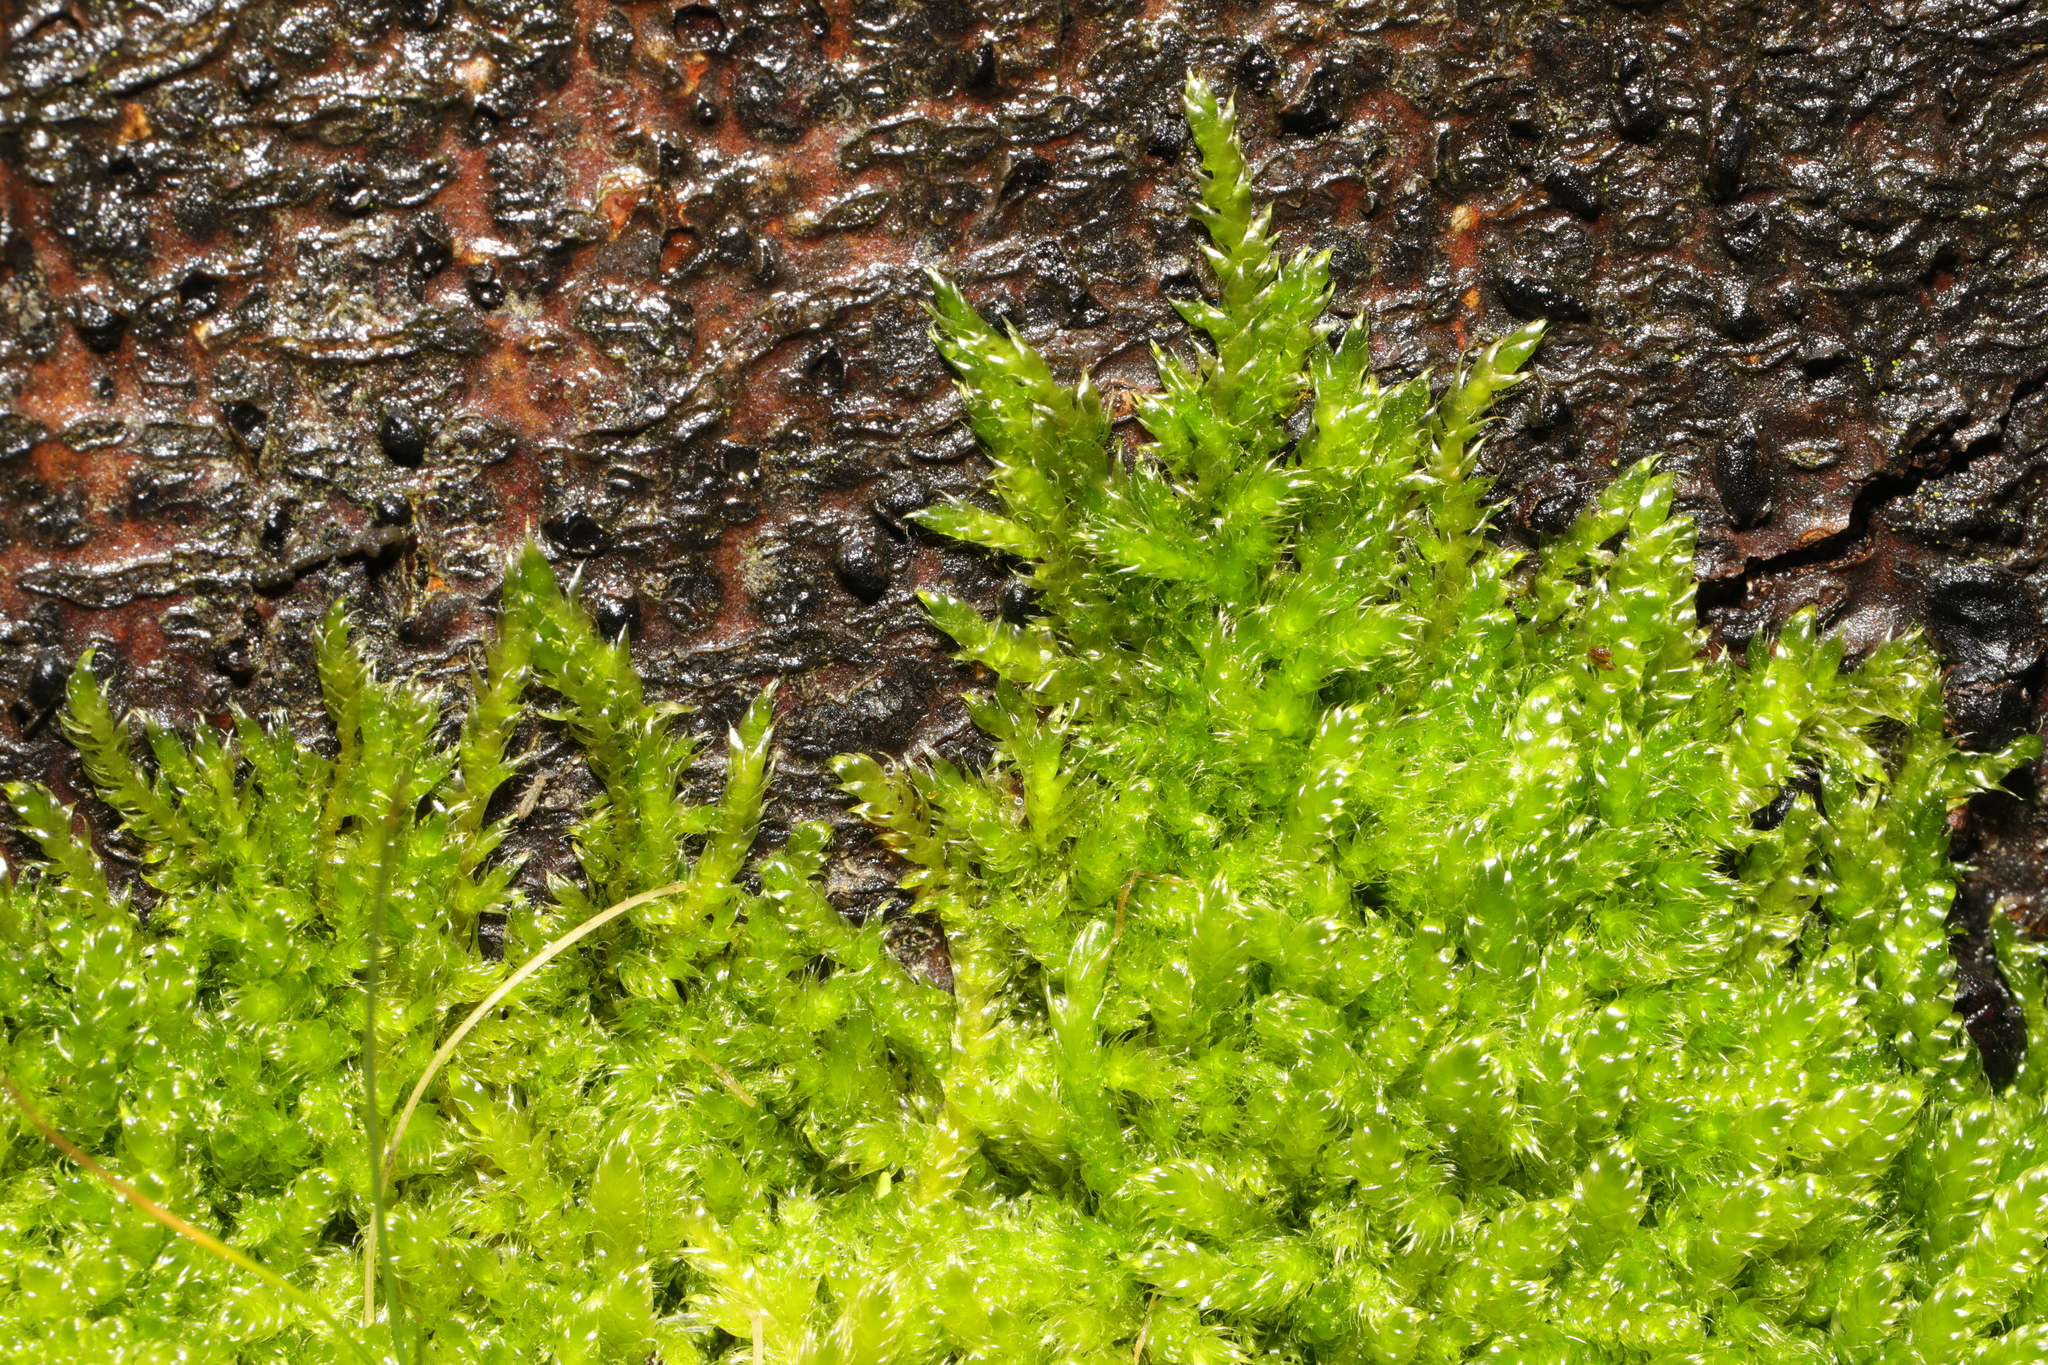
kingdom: Plantae
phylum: Bryophyta
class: Bryopsida
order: Hypnales
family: Hypnaceae
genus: Hypnum
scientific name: Hypnum cupressiforme
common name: Cypress-leaved plait-moss
